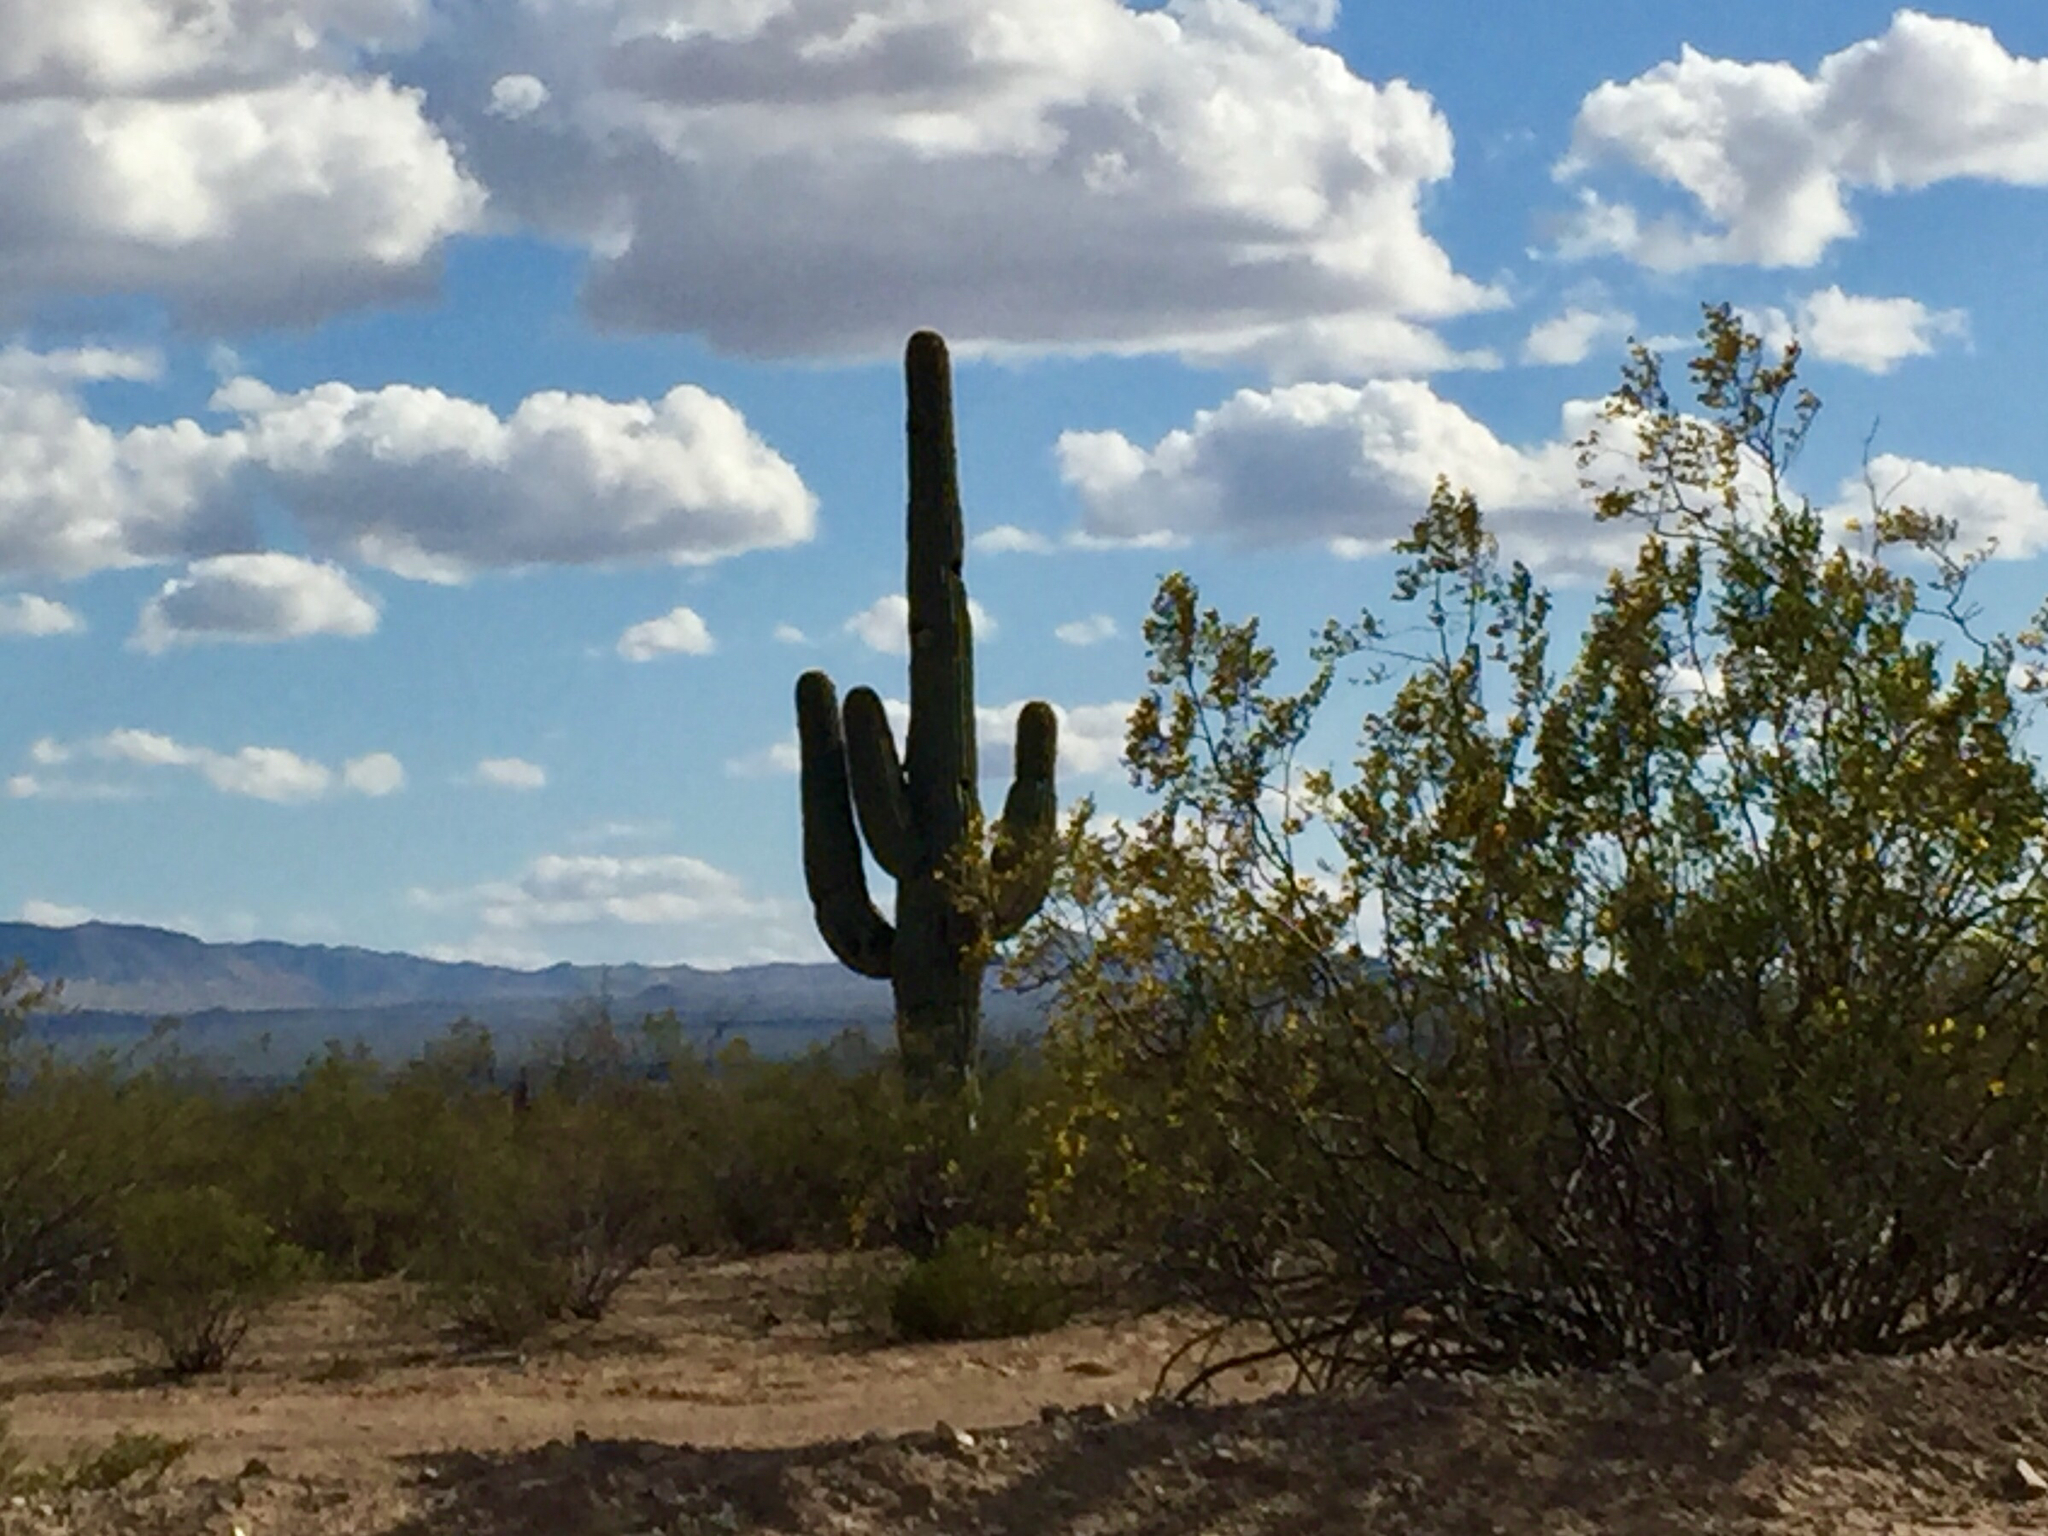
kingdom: Plantae
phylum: Tracheophyta
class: Magnoliopsida
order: Caryophyllales
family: Cactaceae
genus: Carnegiea
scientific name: Carnegiea gigantea
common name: Saguaro
